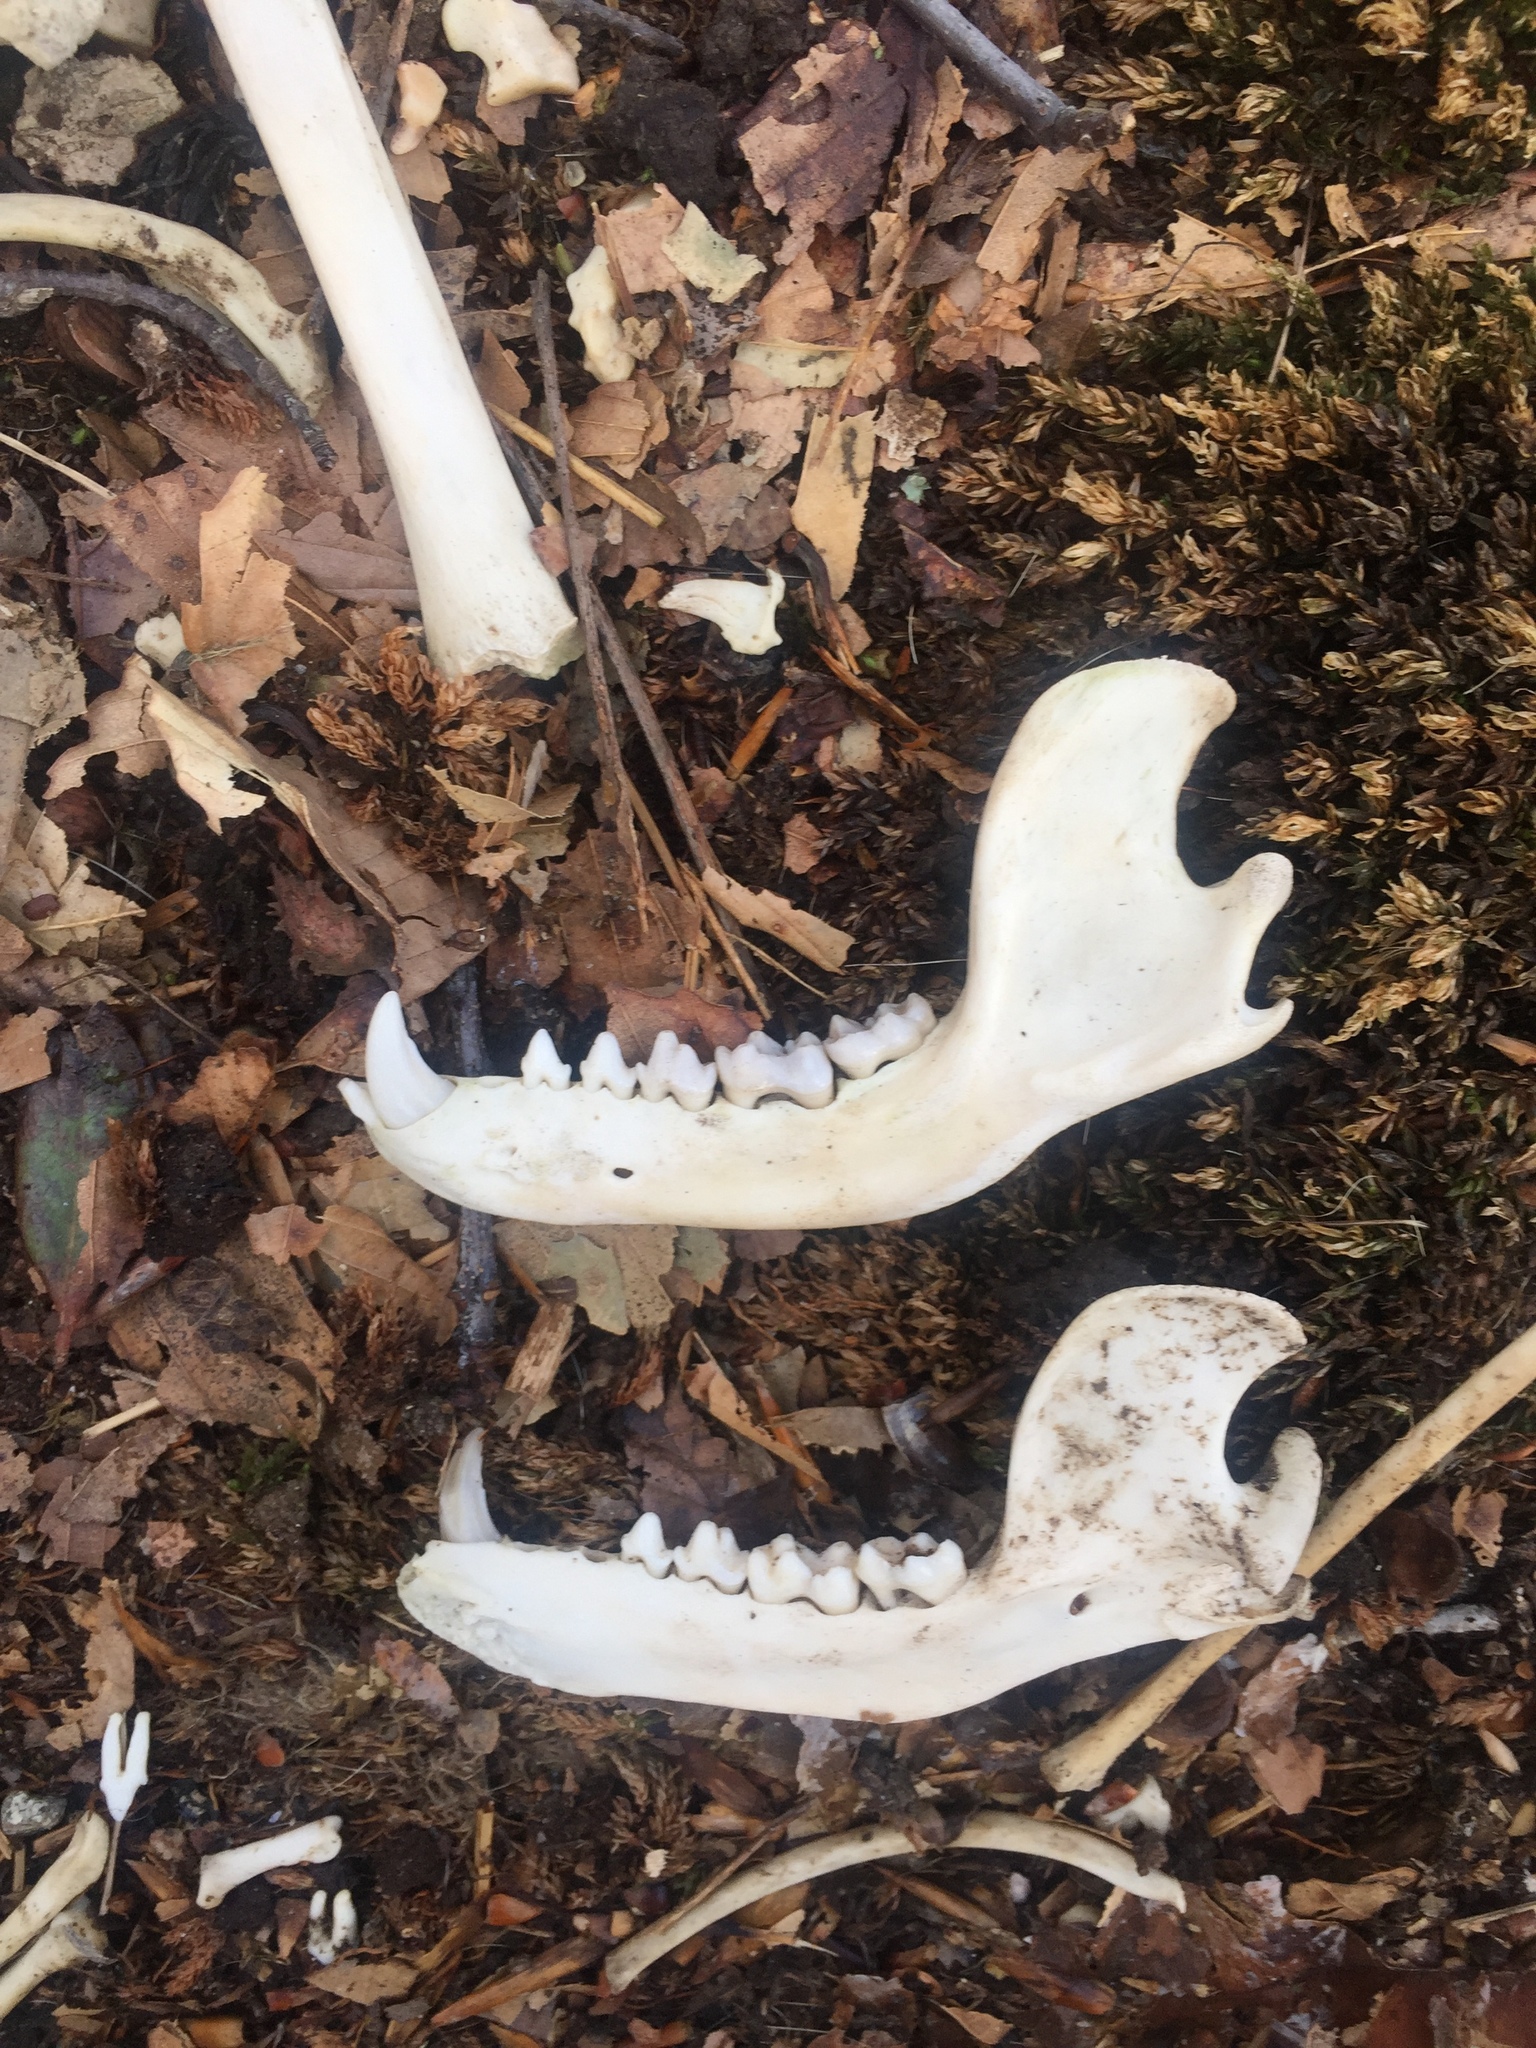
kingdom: Animalia
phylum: Chordata
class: Mammalia
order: Carnivora
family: Procyonidae
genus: Procyon
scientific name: Procyon lotor
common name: Raccoon
